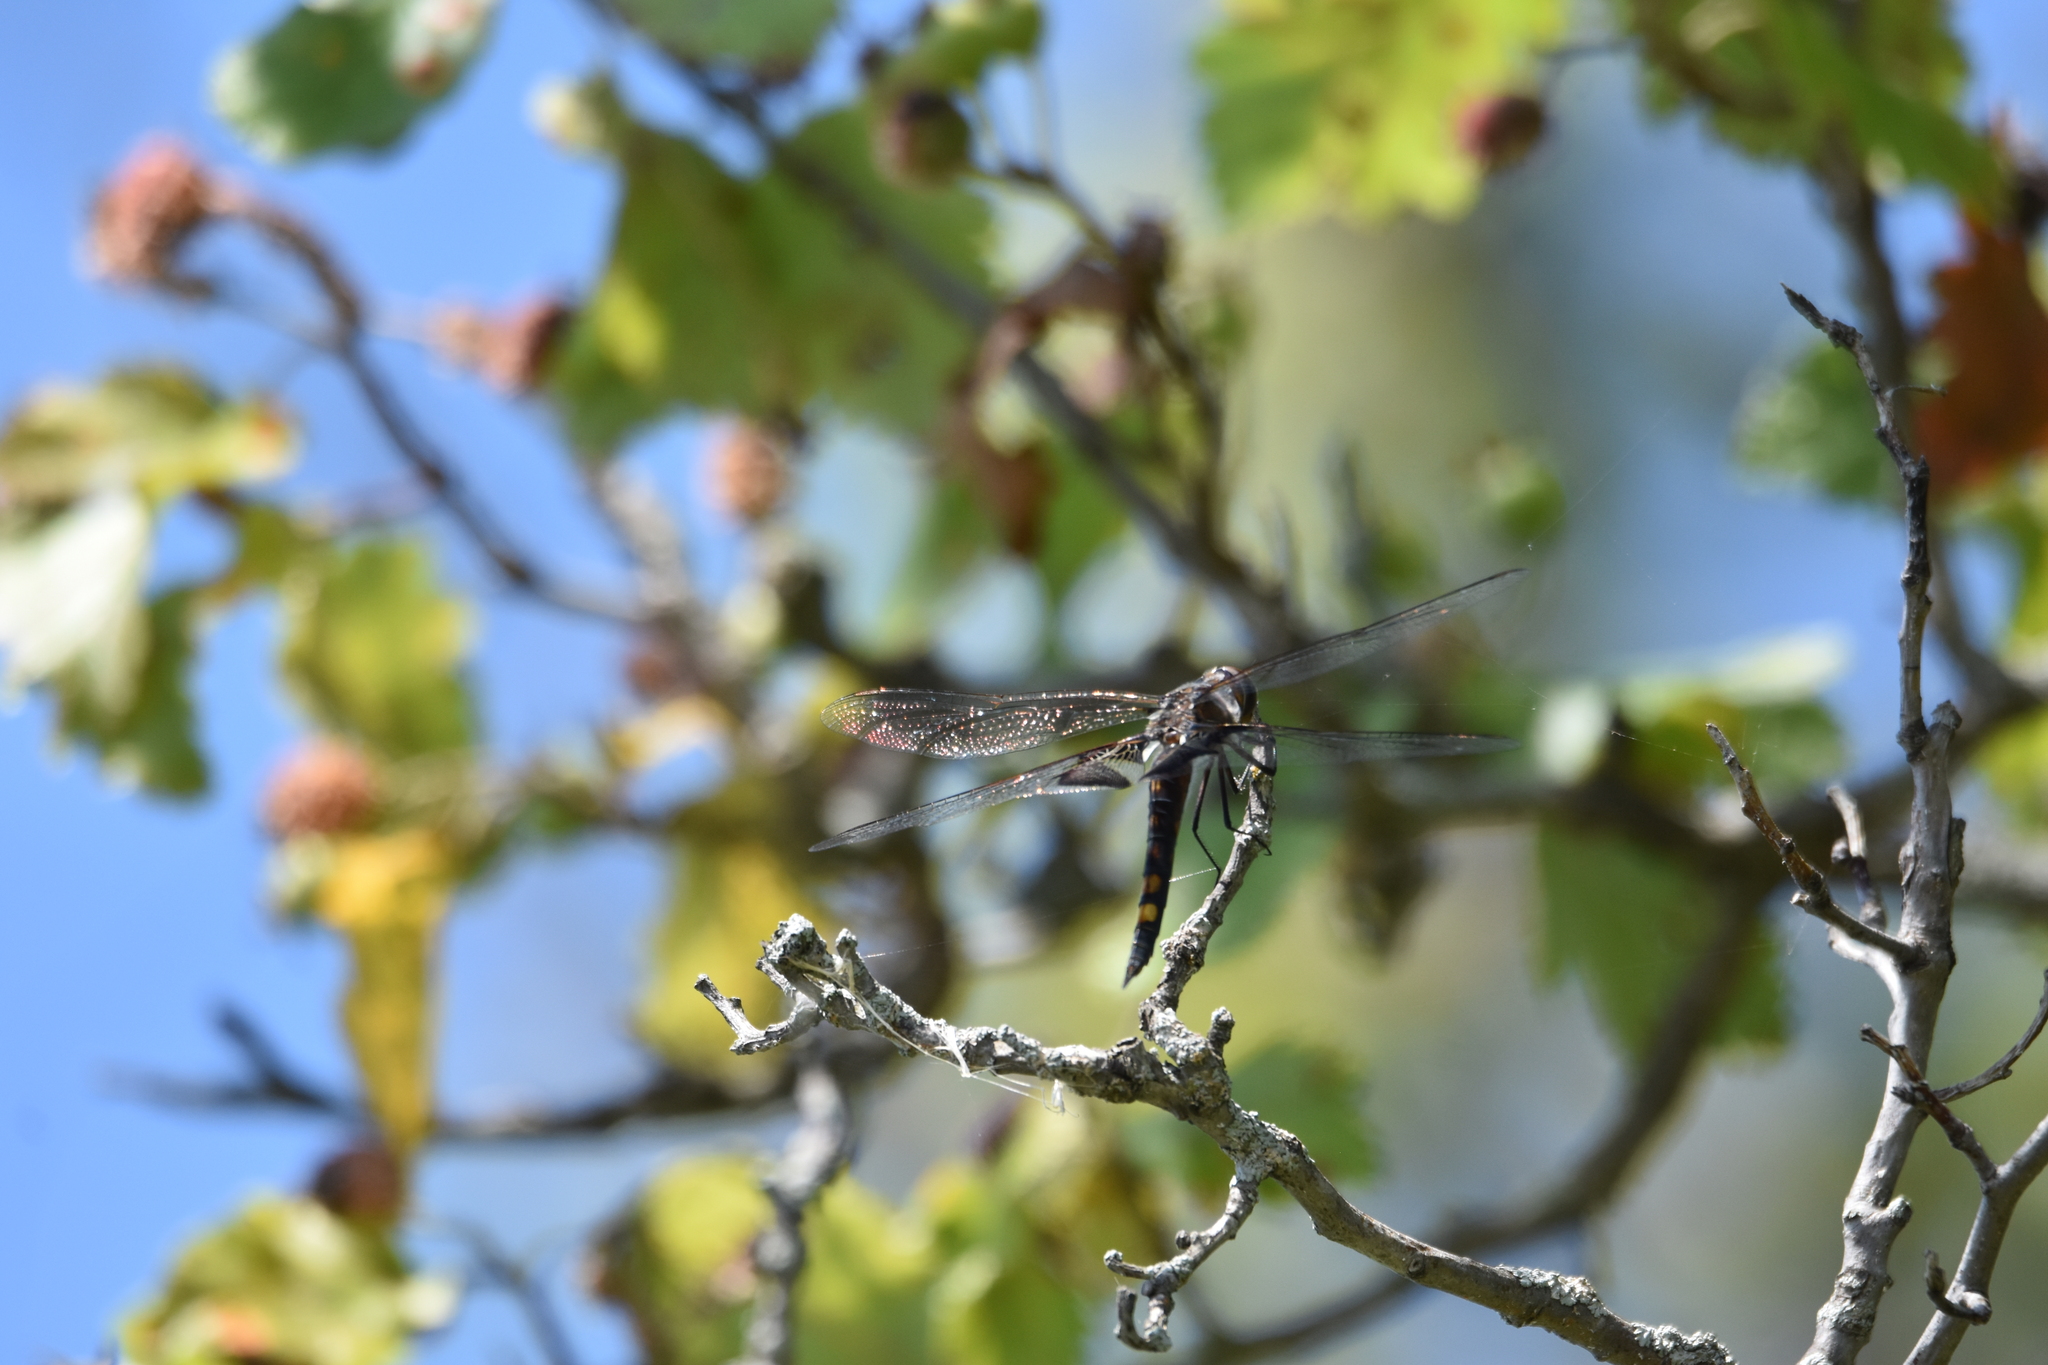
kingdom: Animalia
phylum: Arthropoda
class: Insecta
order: Odonata
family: Libellulidae
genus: Tramea
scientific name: Tramea lacerata
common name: Black saddlebags
